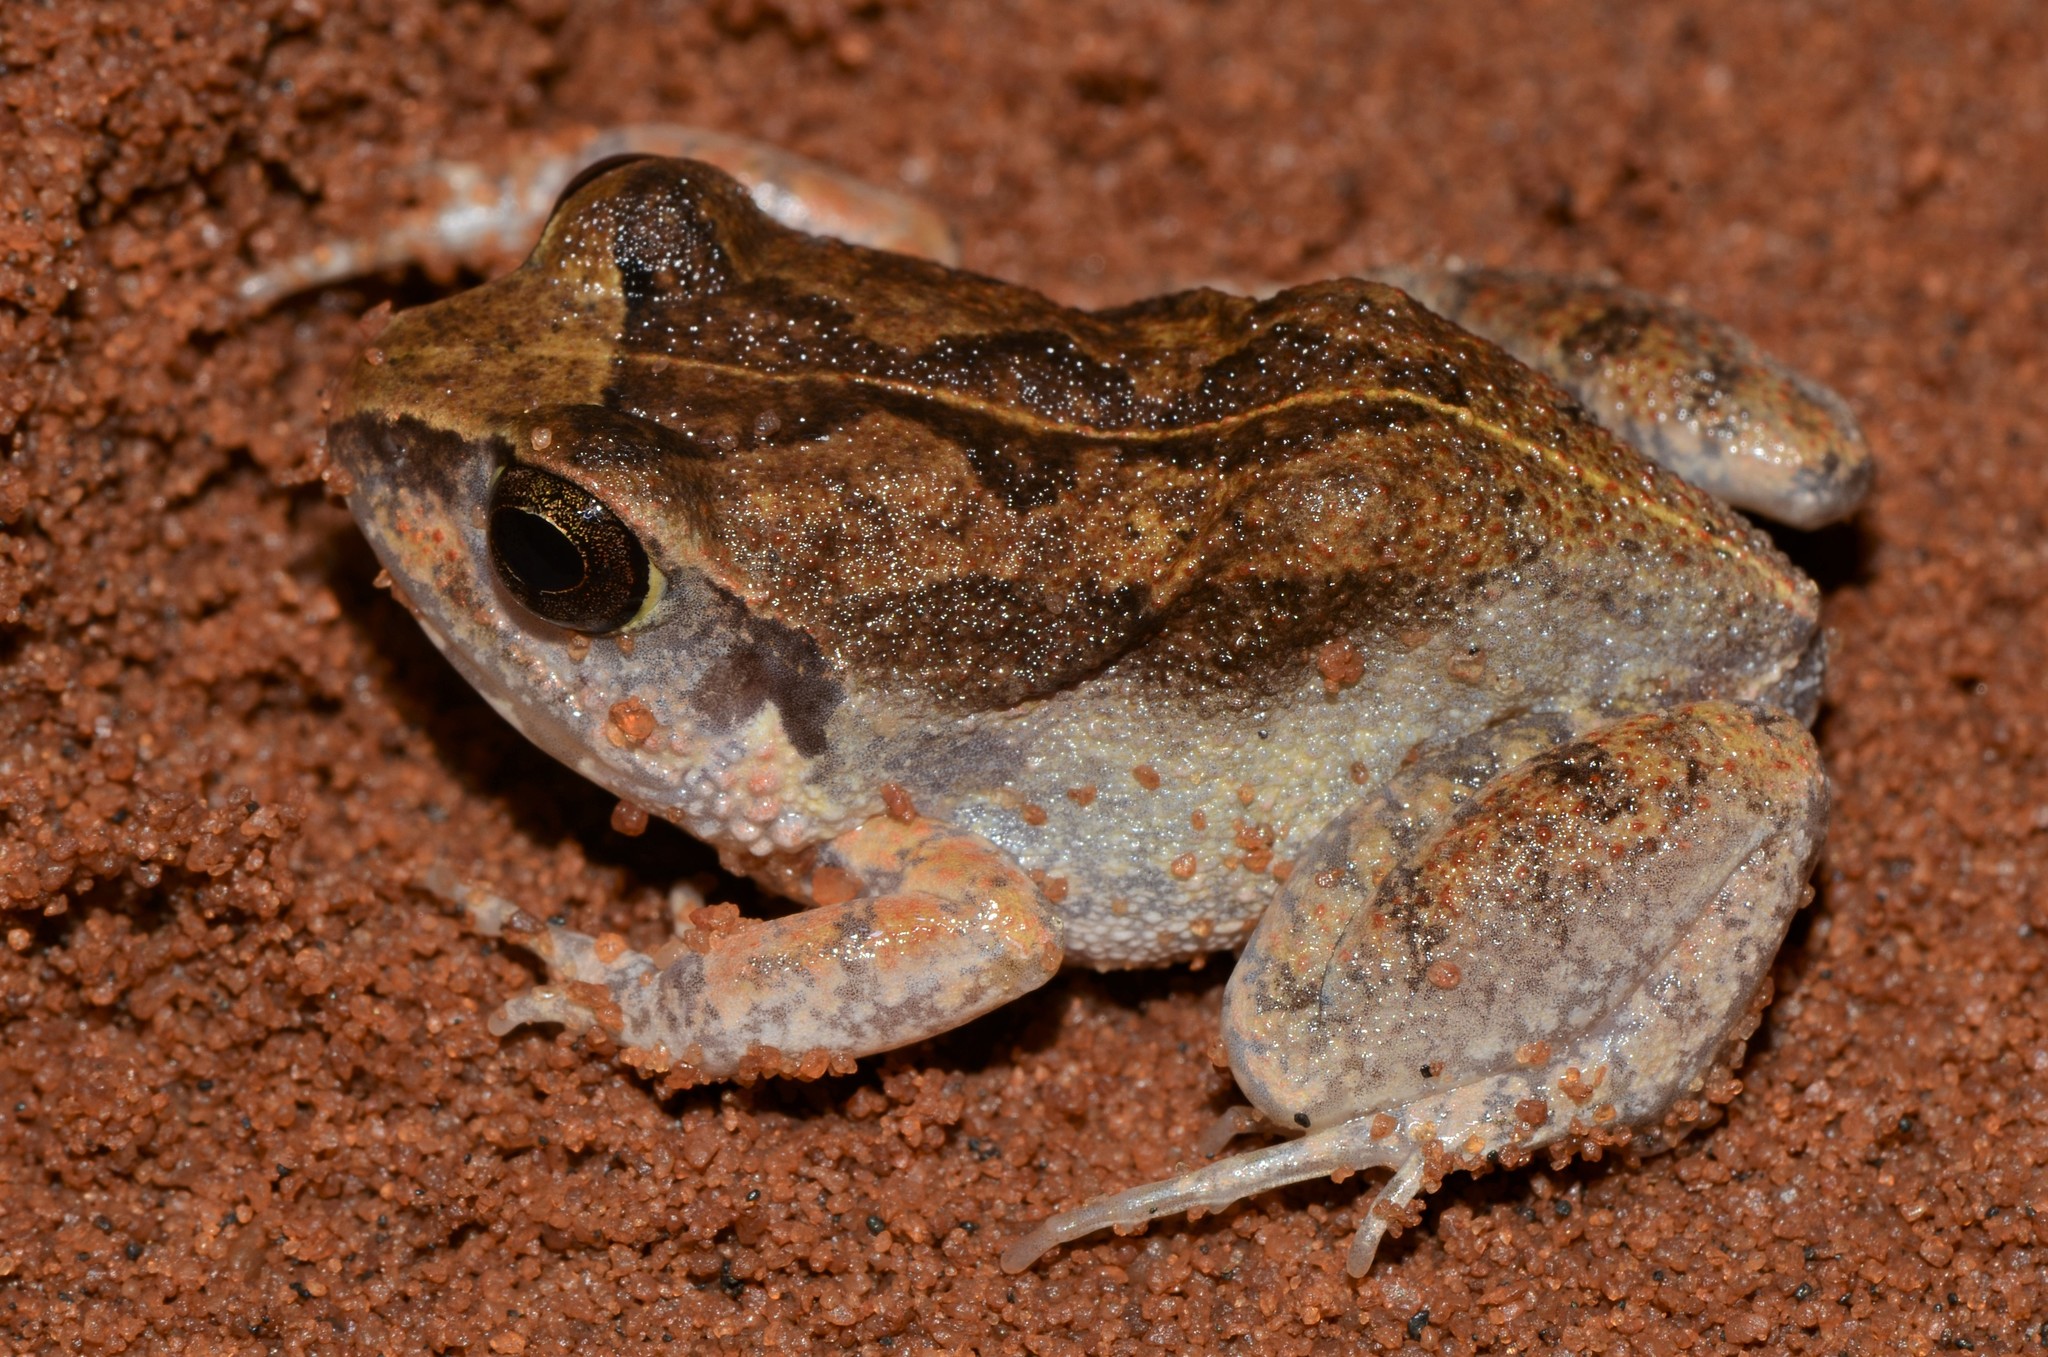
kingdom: Animalia
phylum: Chordata
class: Amphibia
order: Anura
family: Arthroleptidae
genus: Arthroleptis
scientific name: Arthroleptis stenodactylus
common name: Dune squeaker
